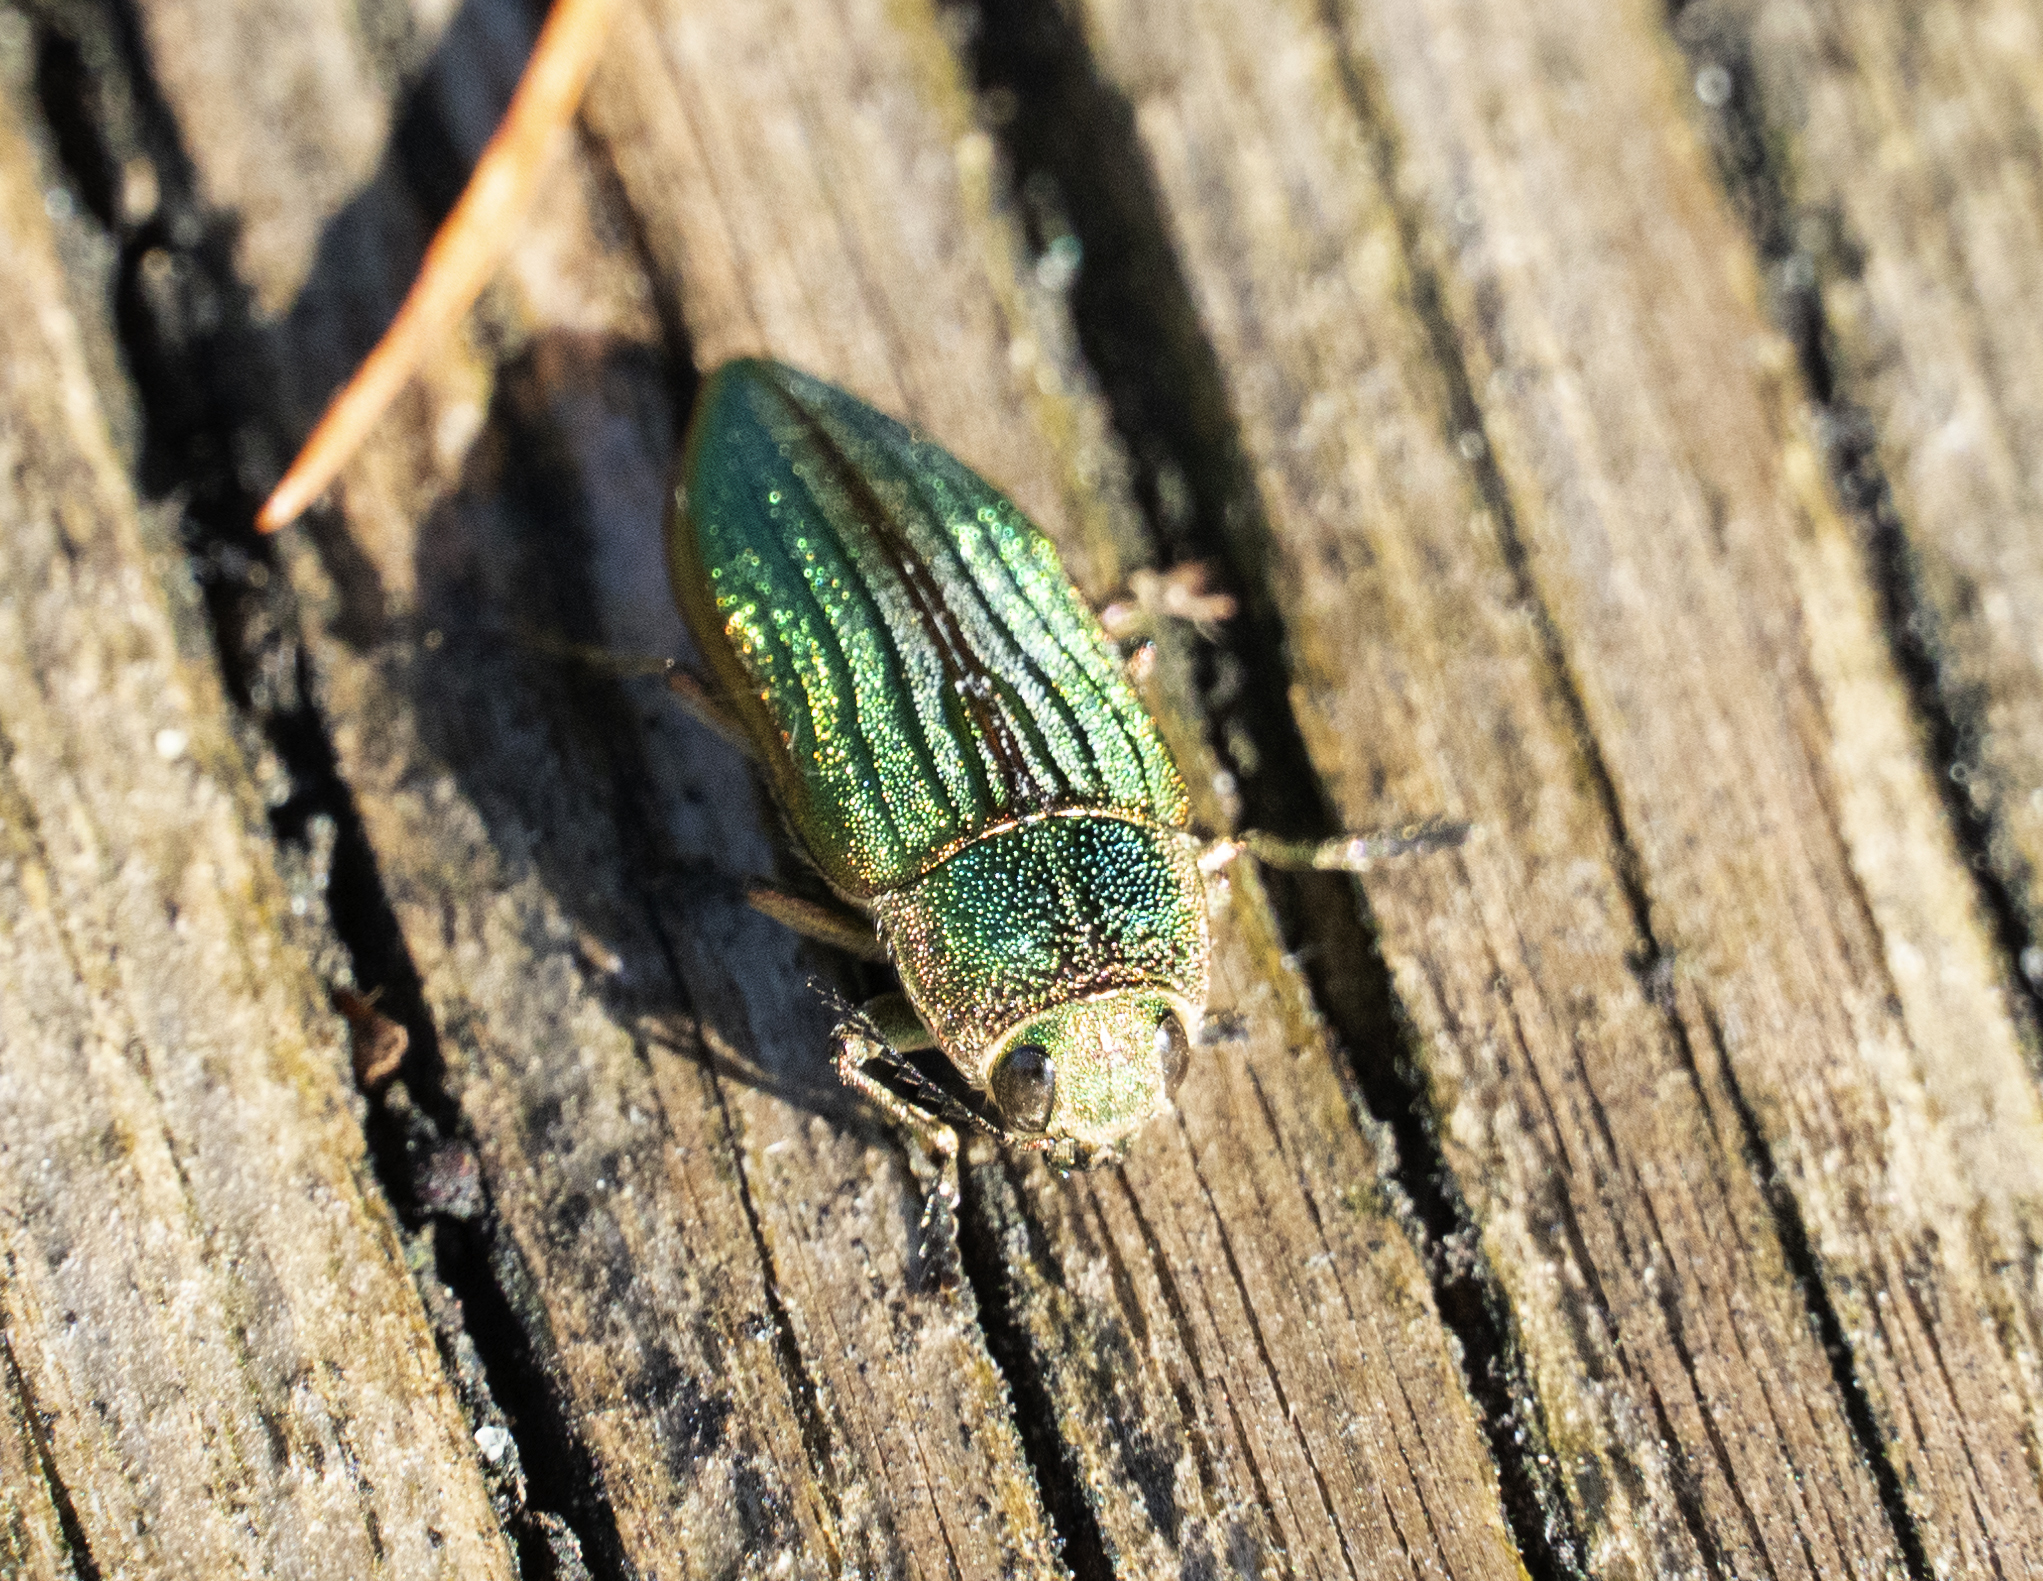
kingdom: Animalia
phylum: Arthropoda
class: Insecta
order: Coleoptera
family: Buprestidae
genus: Buprestis
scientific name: Buprestis aurulenta
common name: Golden buprestid
